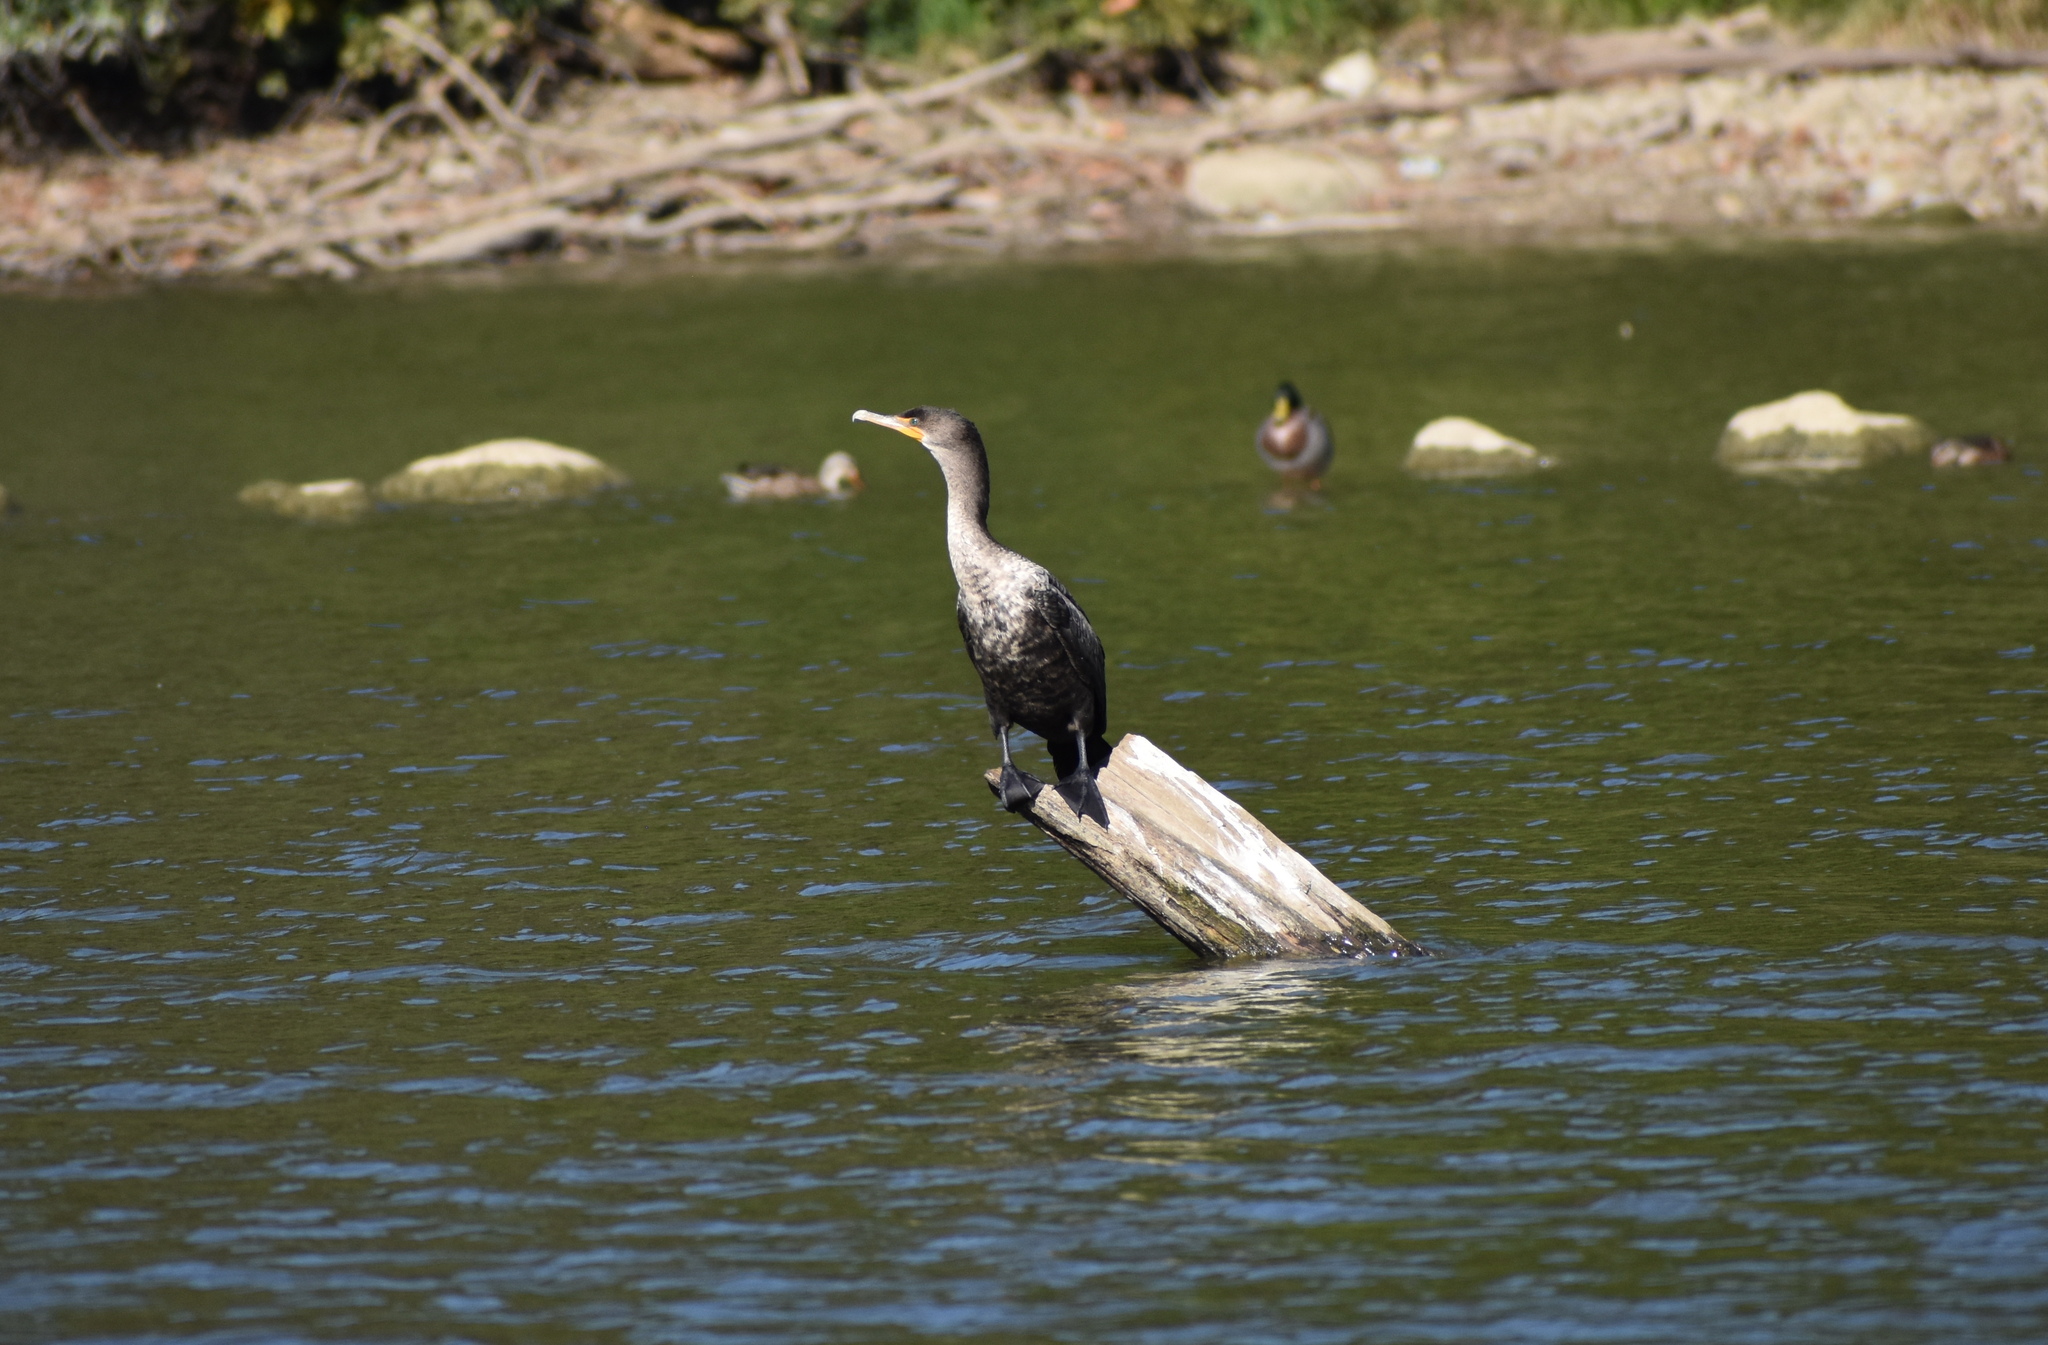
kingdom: Animalia
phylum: Chordata
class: Aves
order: Suliformes
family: Phalacrocoracidae
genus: Phalacrocorax
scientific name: Phalacrocorax auritus
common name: Double-crested cormorant
